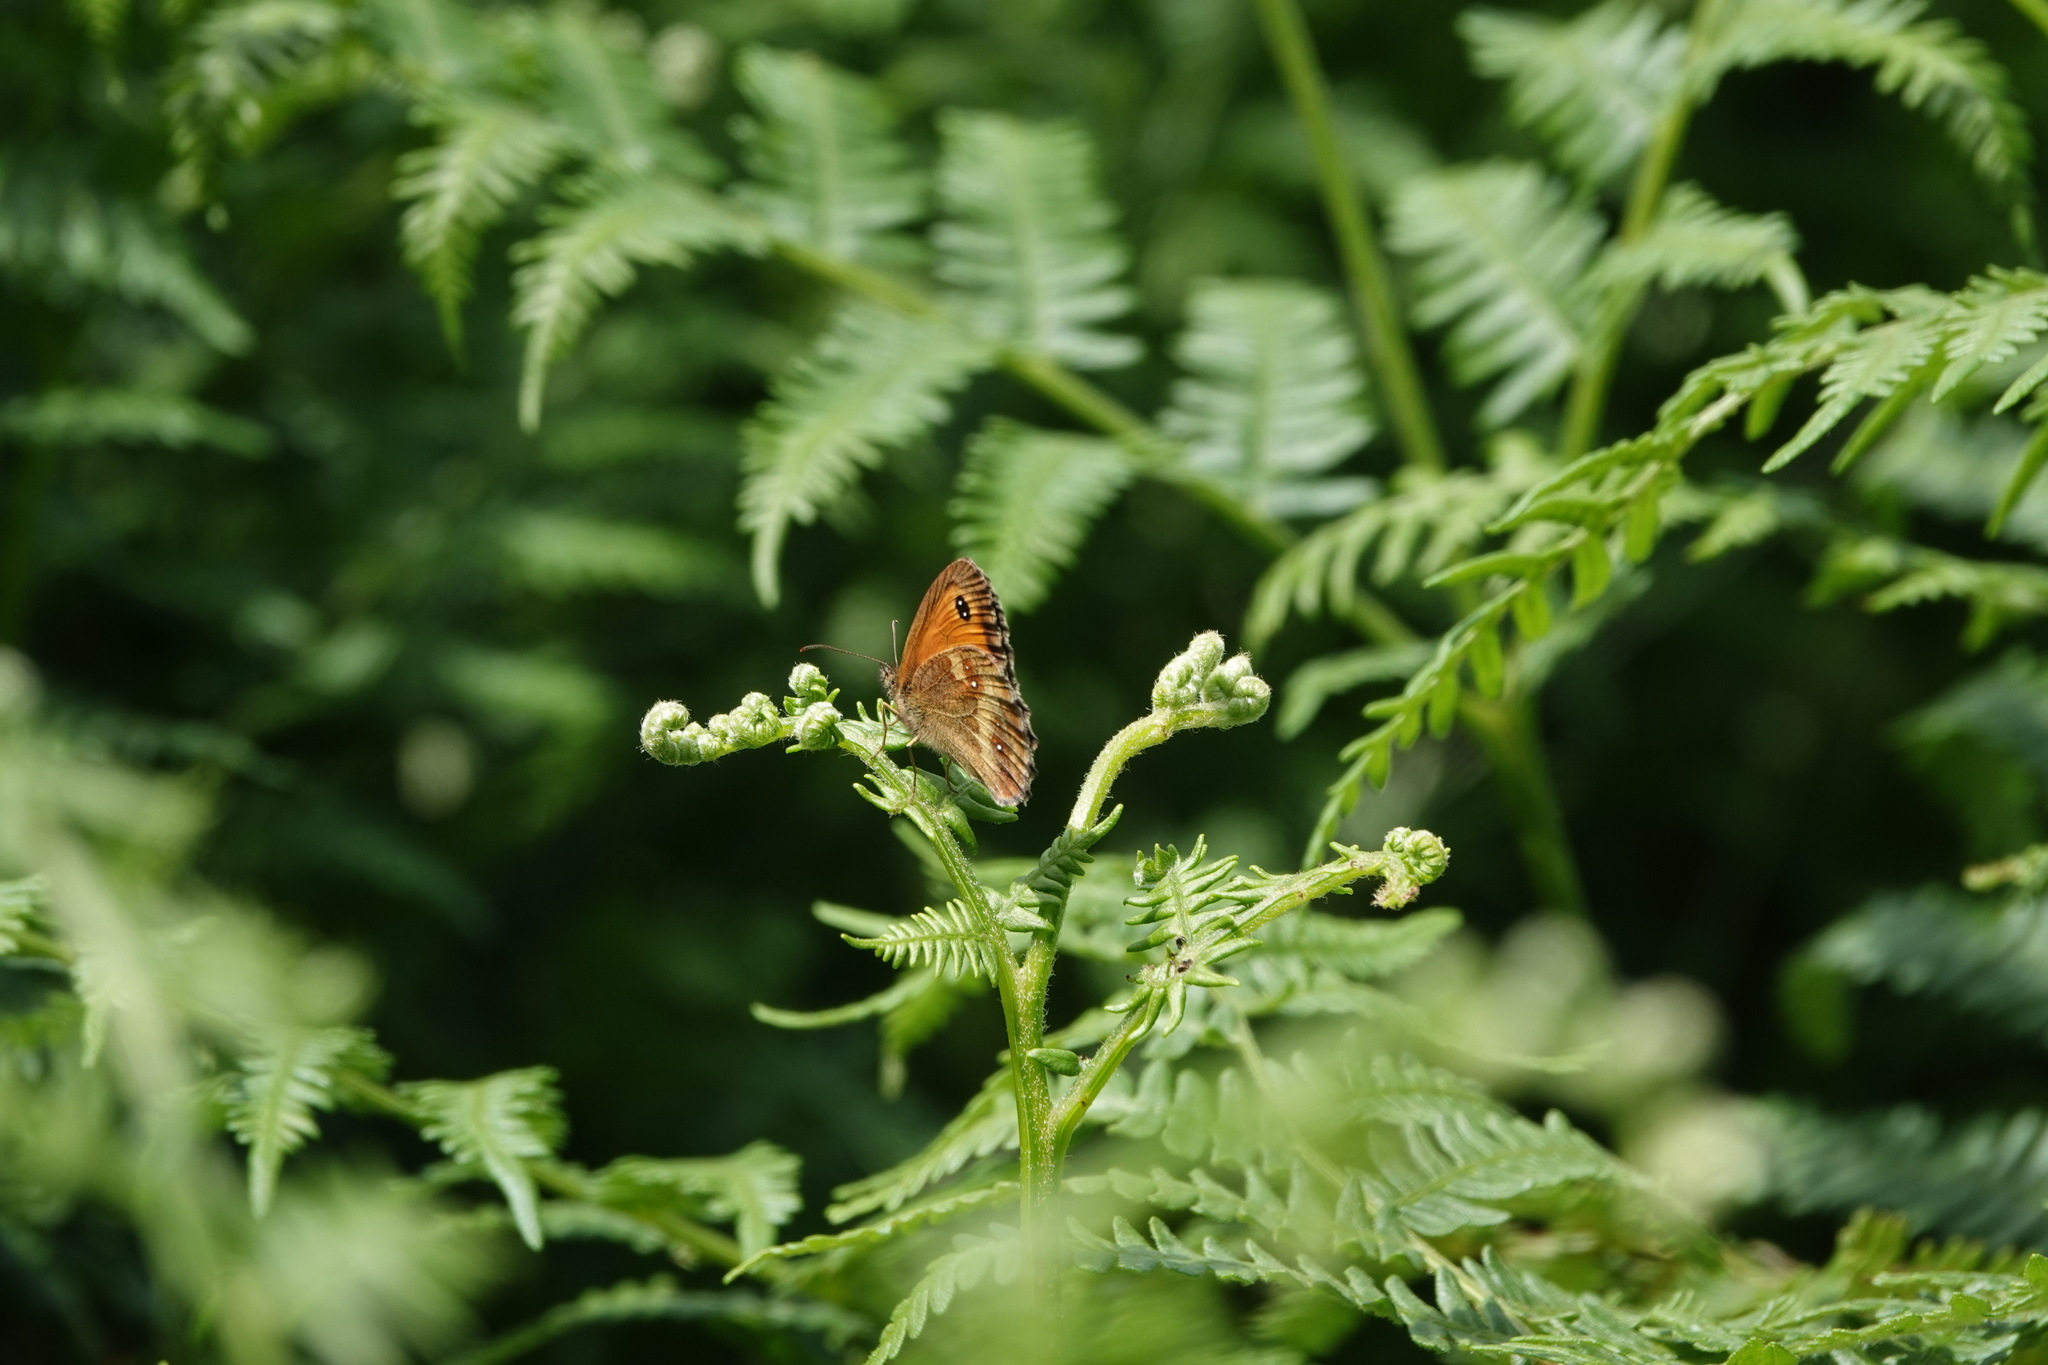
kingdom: Animalia
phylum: Arthropoda
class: Insecta
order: Lepidoptera
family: Nymphalidae
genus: Pyronia
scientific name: Pyronia tithonus
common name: Gatekeeper
